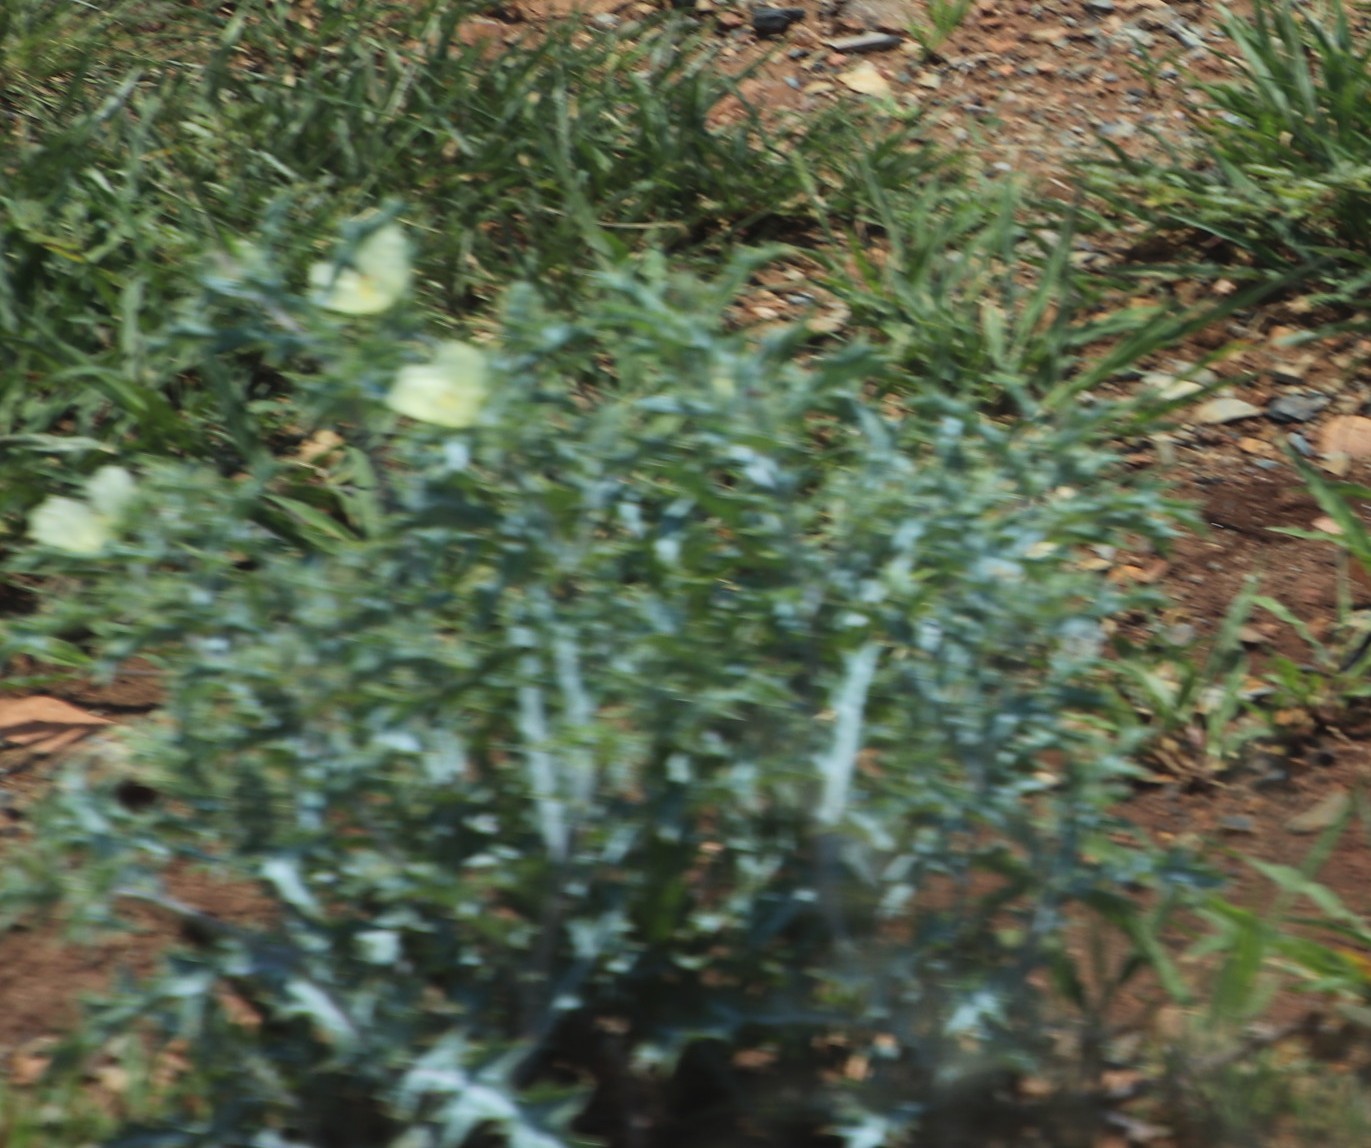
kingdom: Plantae
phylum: Tracheophyta
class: Magnoliopsida
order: Ranunculales
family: Papaveraceae
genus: Argemone
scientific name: Argemone ochroleuca
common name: White-flower mexican-poppy
